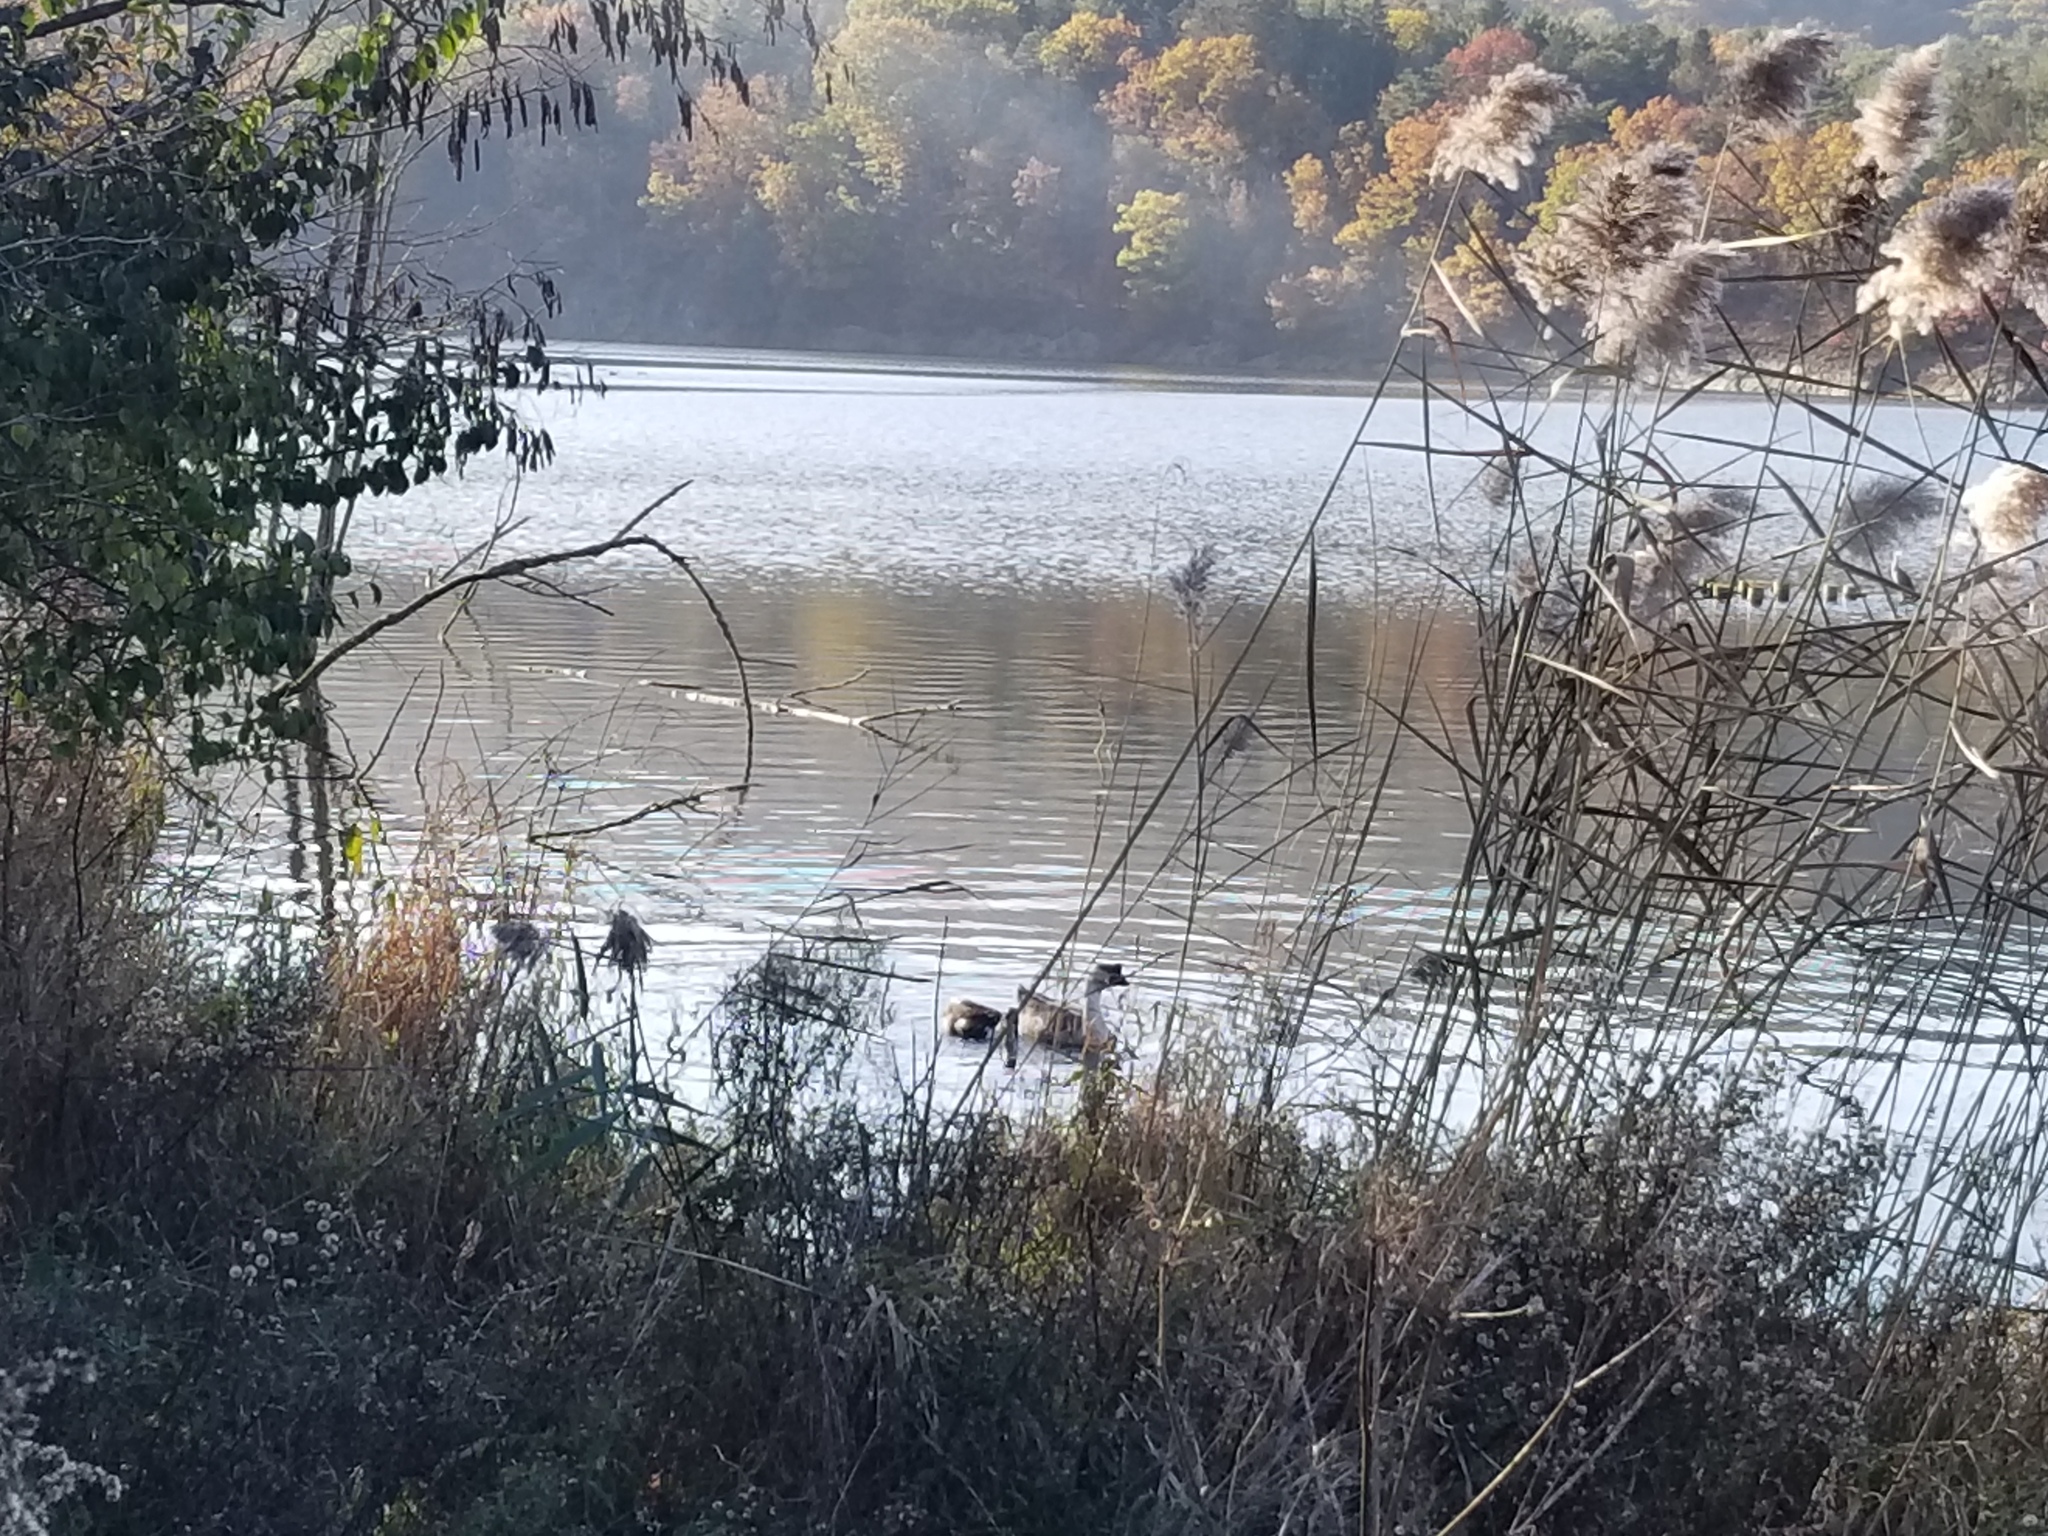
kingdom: Animalia
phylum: Chordata
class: Aves
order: Anseriformes
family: Anatidae
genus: Anser
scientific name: Anser cygnoides
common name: Swan goose
